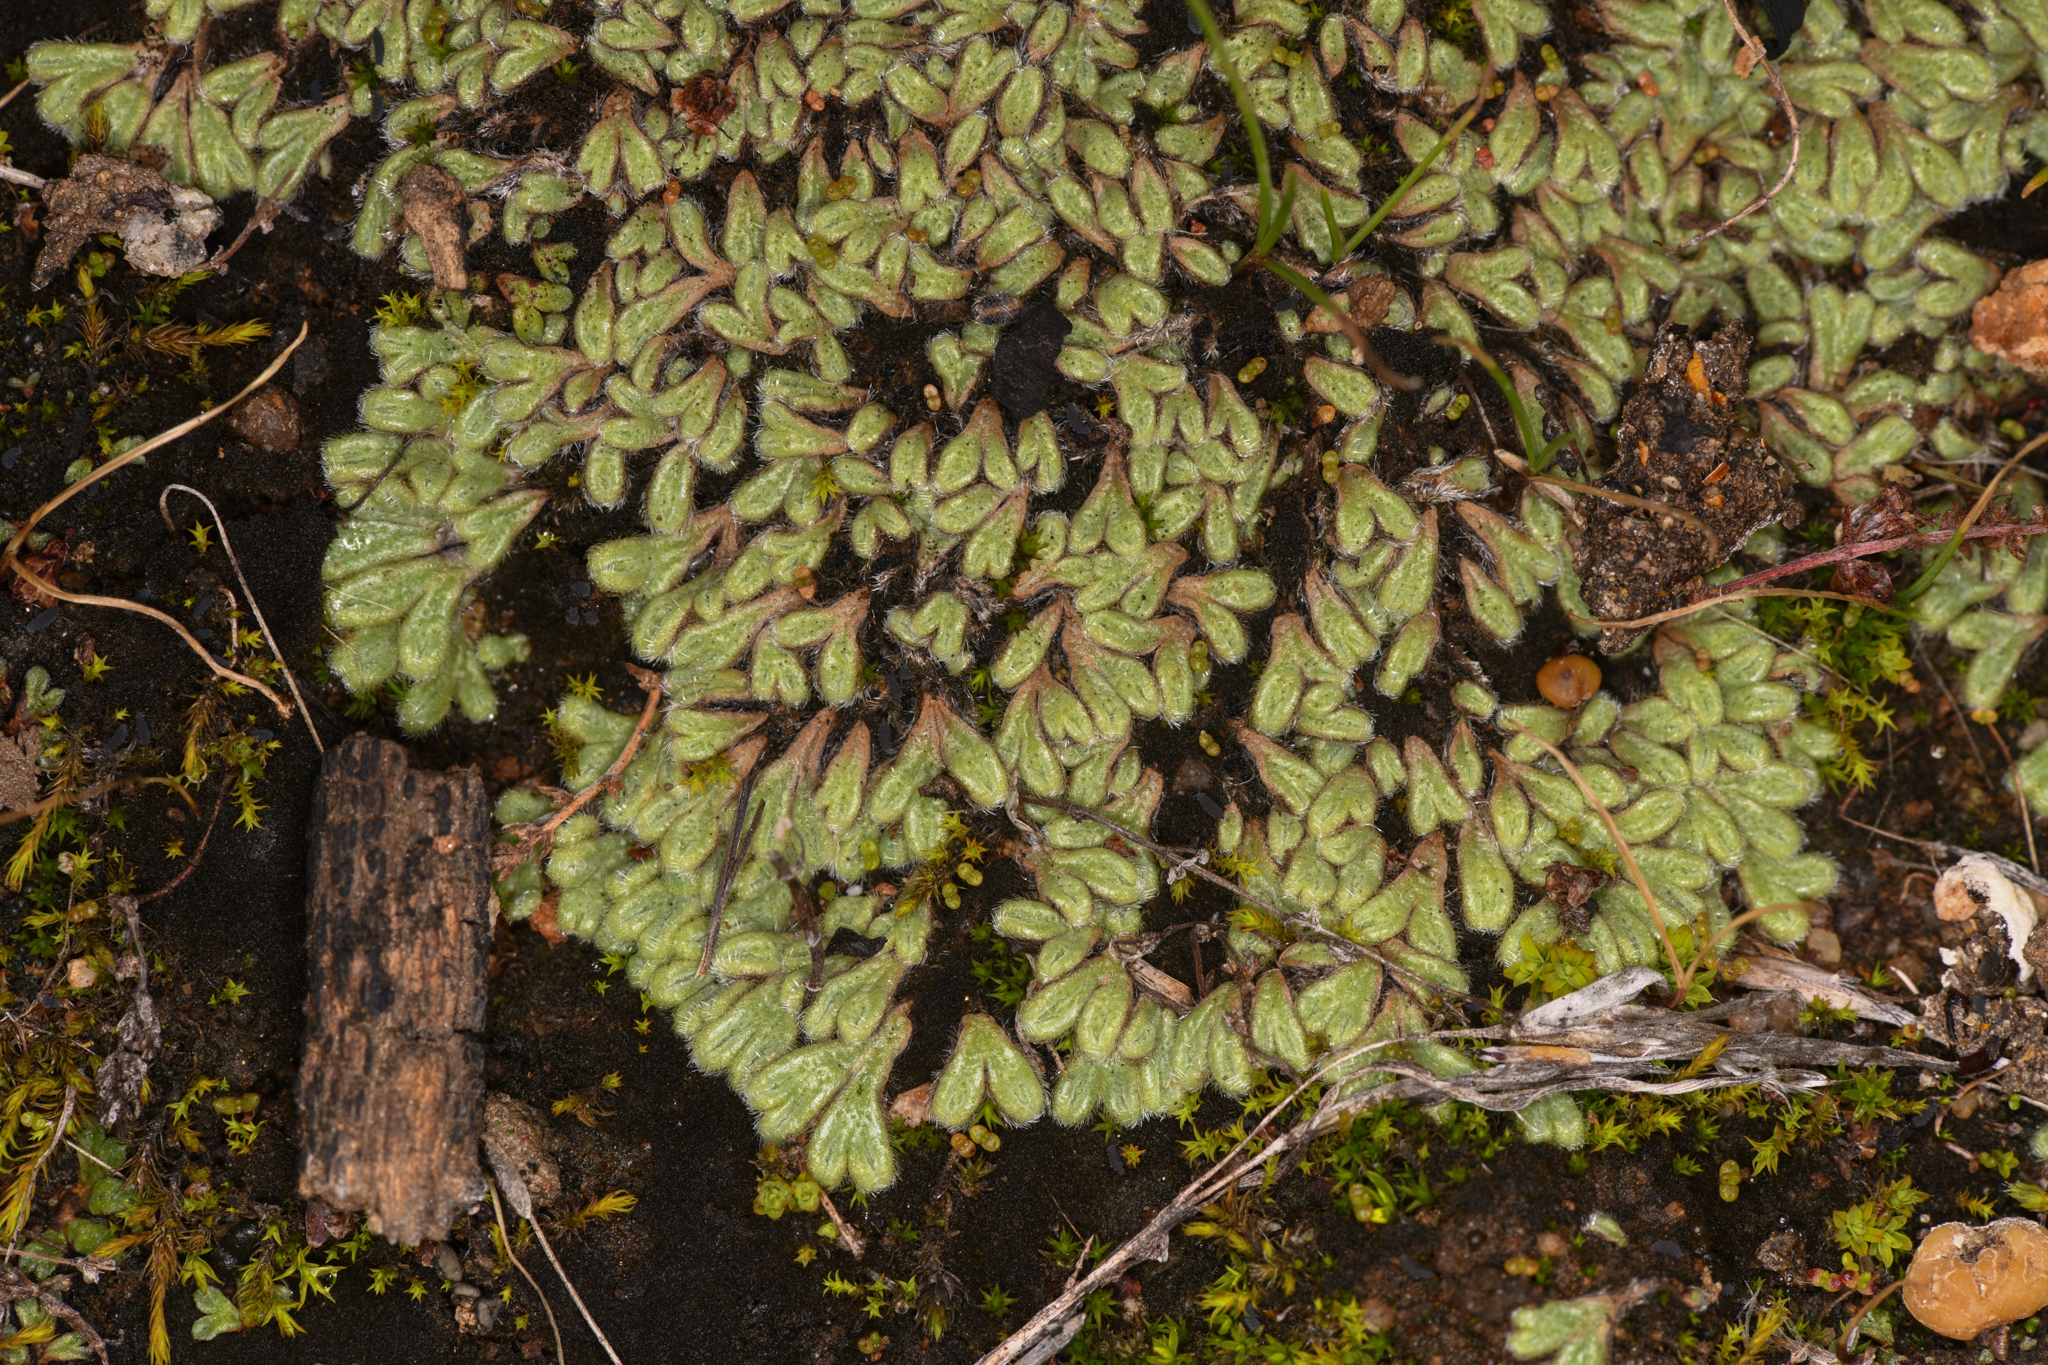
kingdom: Plantae
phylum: Marchantiophyta
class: Marchantiopsida
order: Marchantiales
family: Ricciaceae
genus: Riccia
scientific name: Riccia trichocarpa
